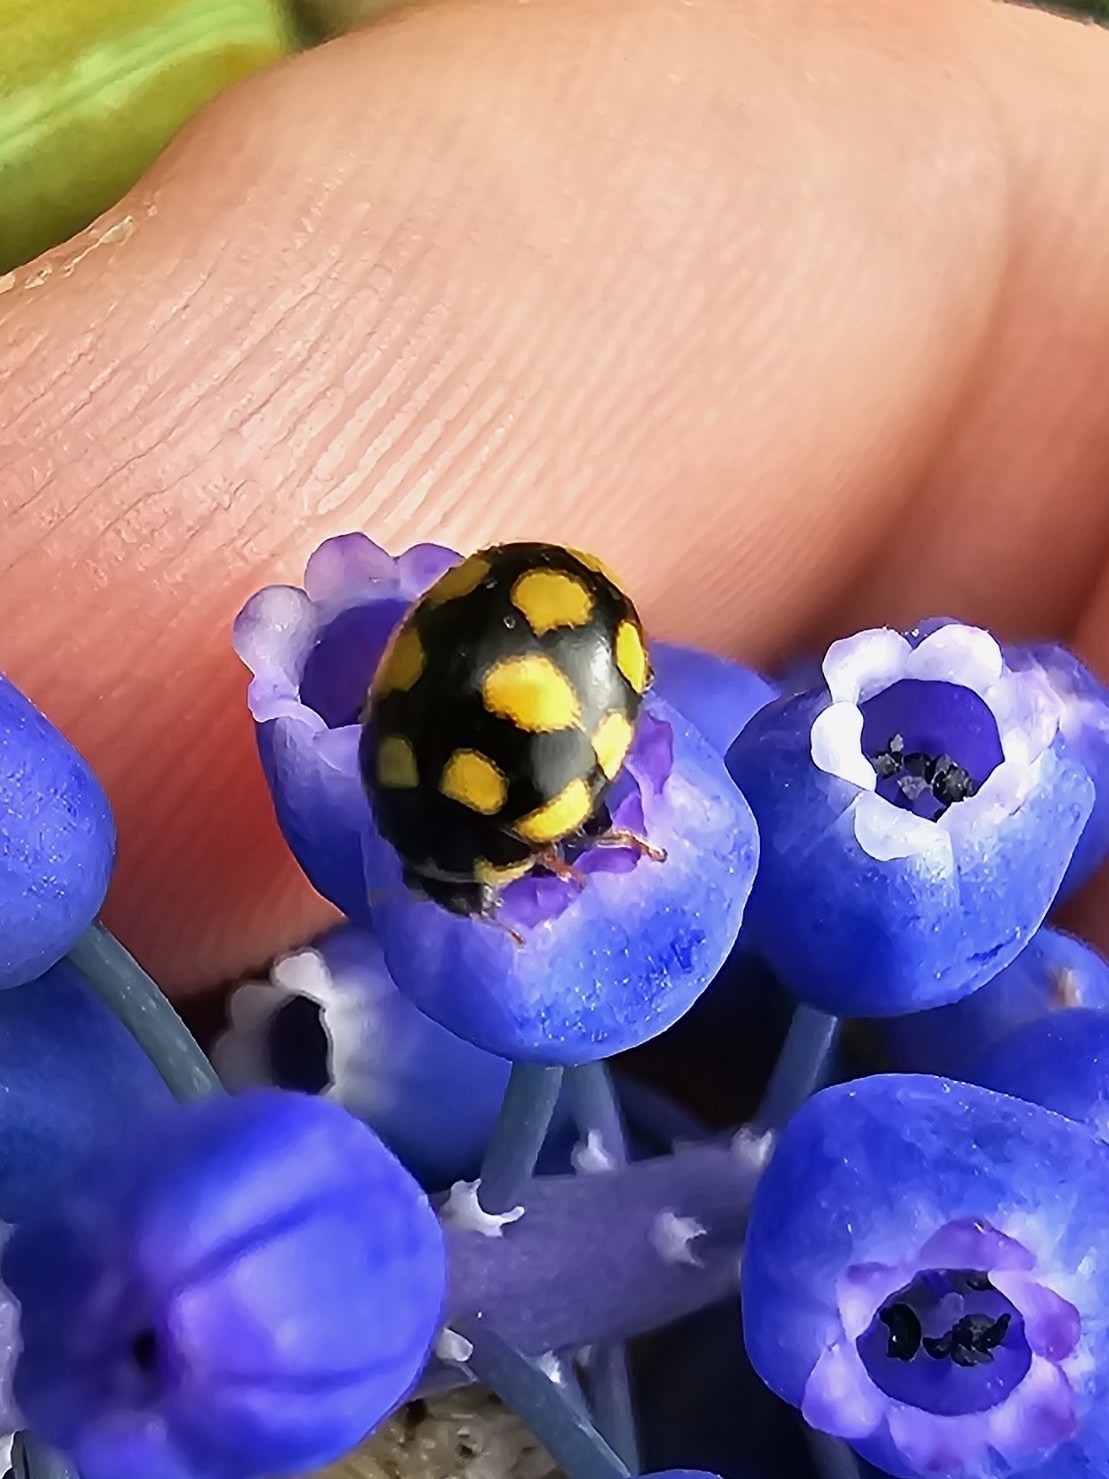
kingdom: Animalia
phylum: Arthropoda
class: Insecta
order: Coleoptera
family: Coccinellidae
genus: Coccinula
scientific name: Coccinula quatuordecimpustulata
